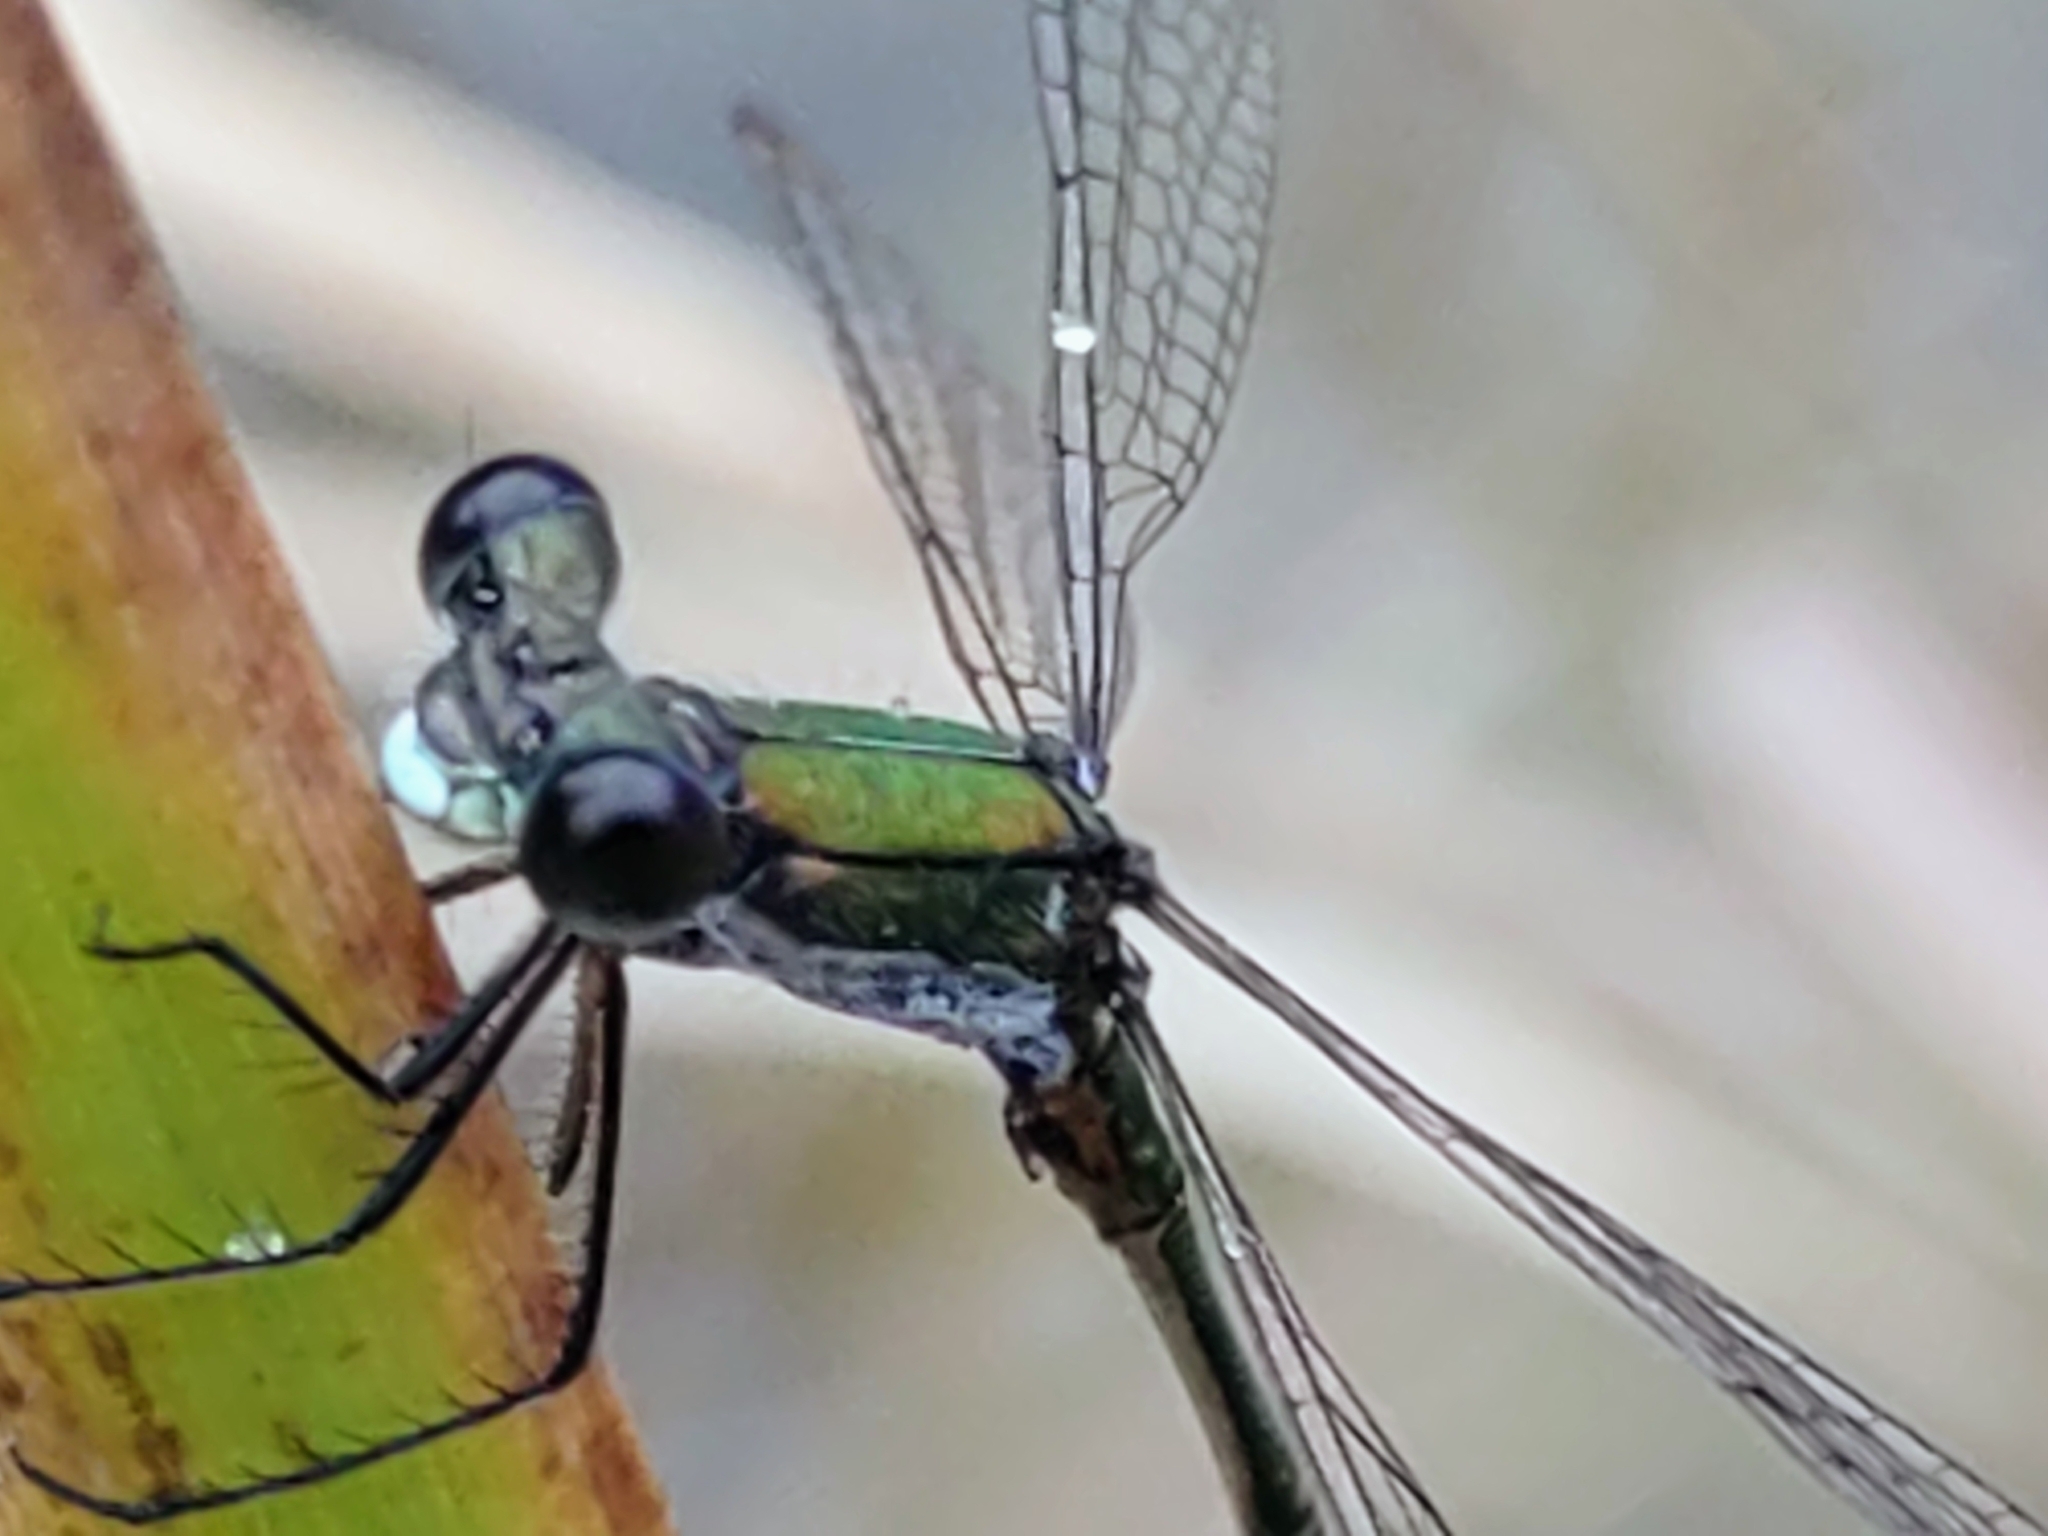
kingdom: Animalia
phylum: Arthropoda
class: Insecta
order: Odonata
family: Lestidae
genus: Lestes
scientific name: Lestes virens
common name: Small emerald spreadwing
